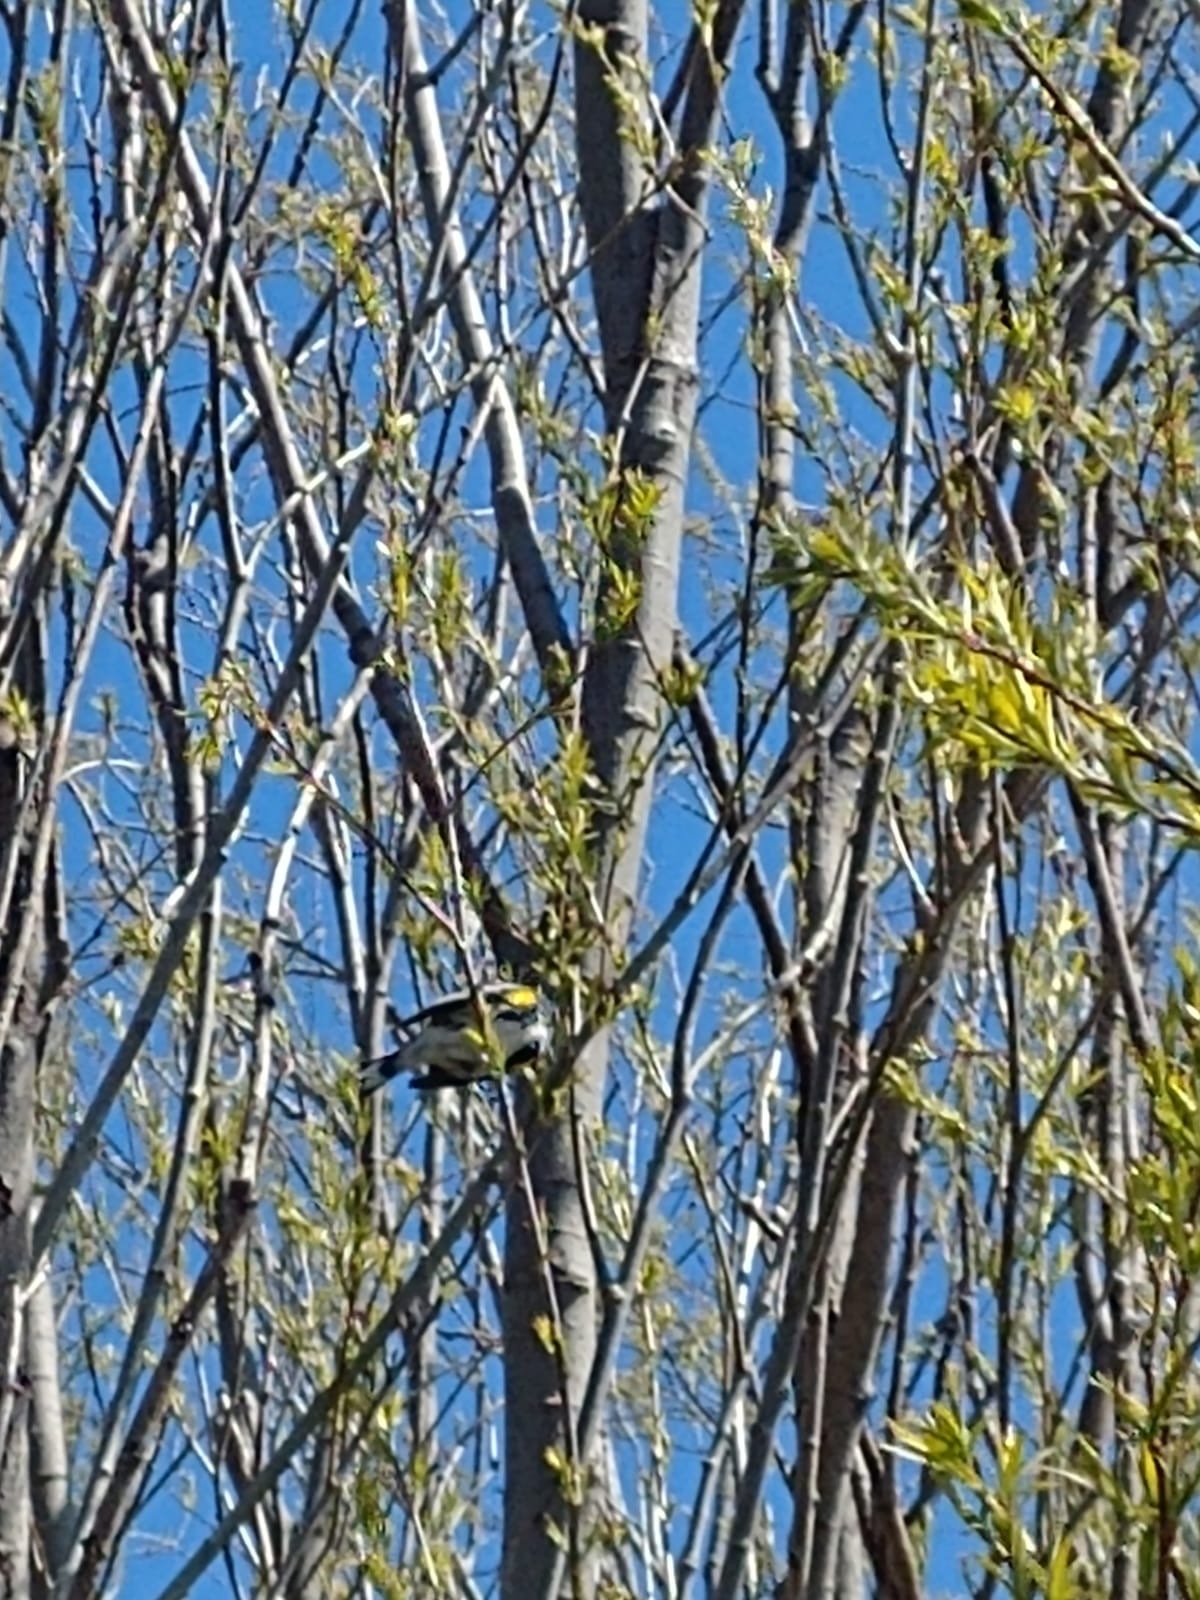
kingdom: Animalia
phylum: Chordata
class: Aves
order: Passeriformes
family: Parulidae
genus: Setophaga
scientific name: Setophaga coronata
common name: Myrtle warbler
